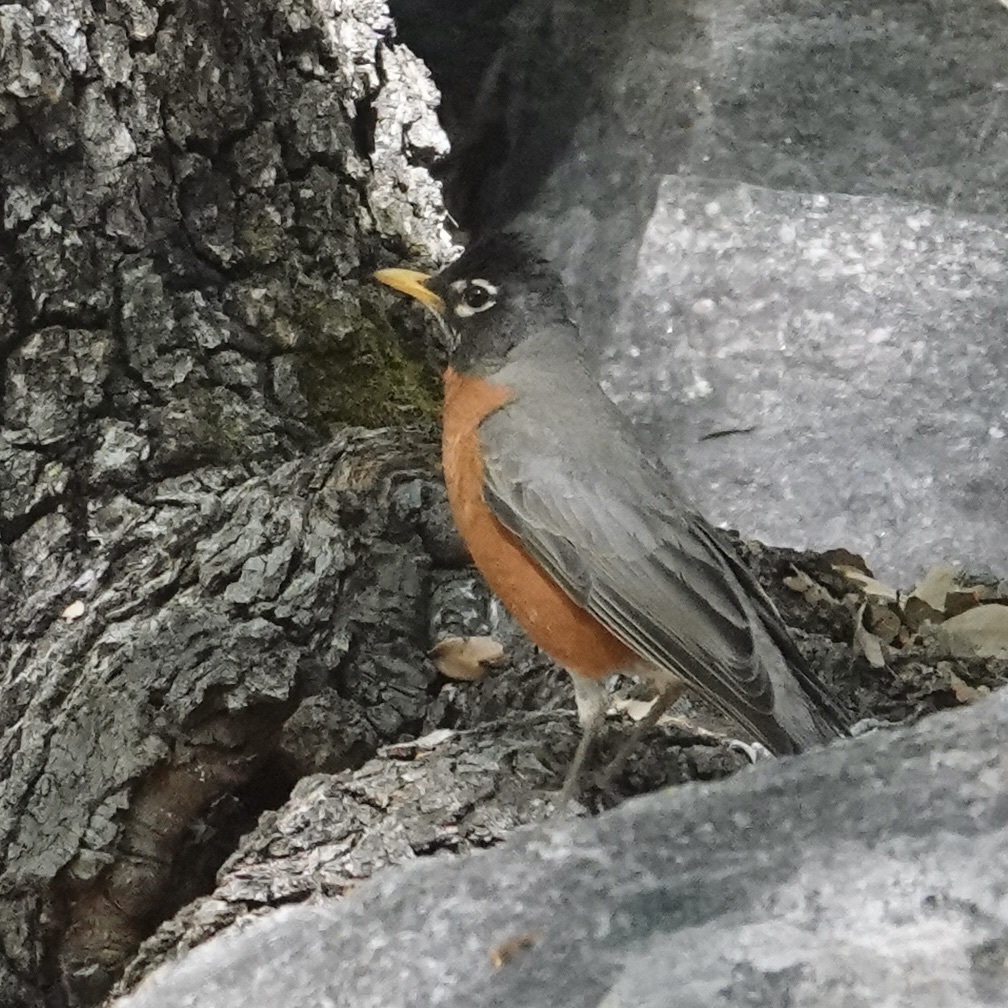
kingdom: Animalia
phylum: Chordata
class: Aves
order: Passeriformes
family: Turdidae
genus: Turdus
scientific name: Turdus migratorius
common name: American robin
